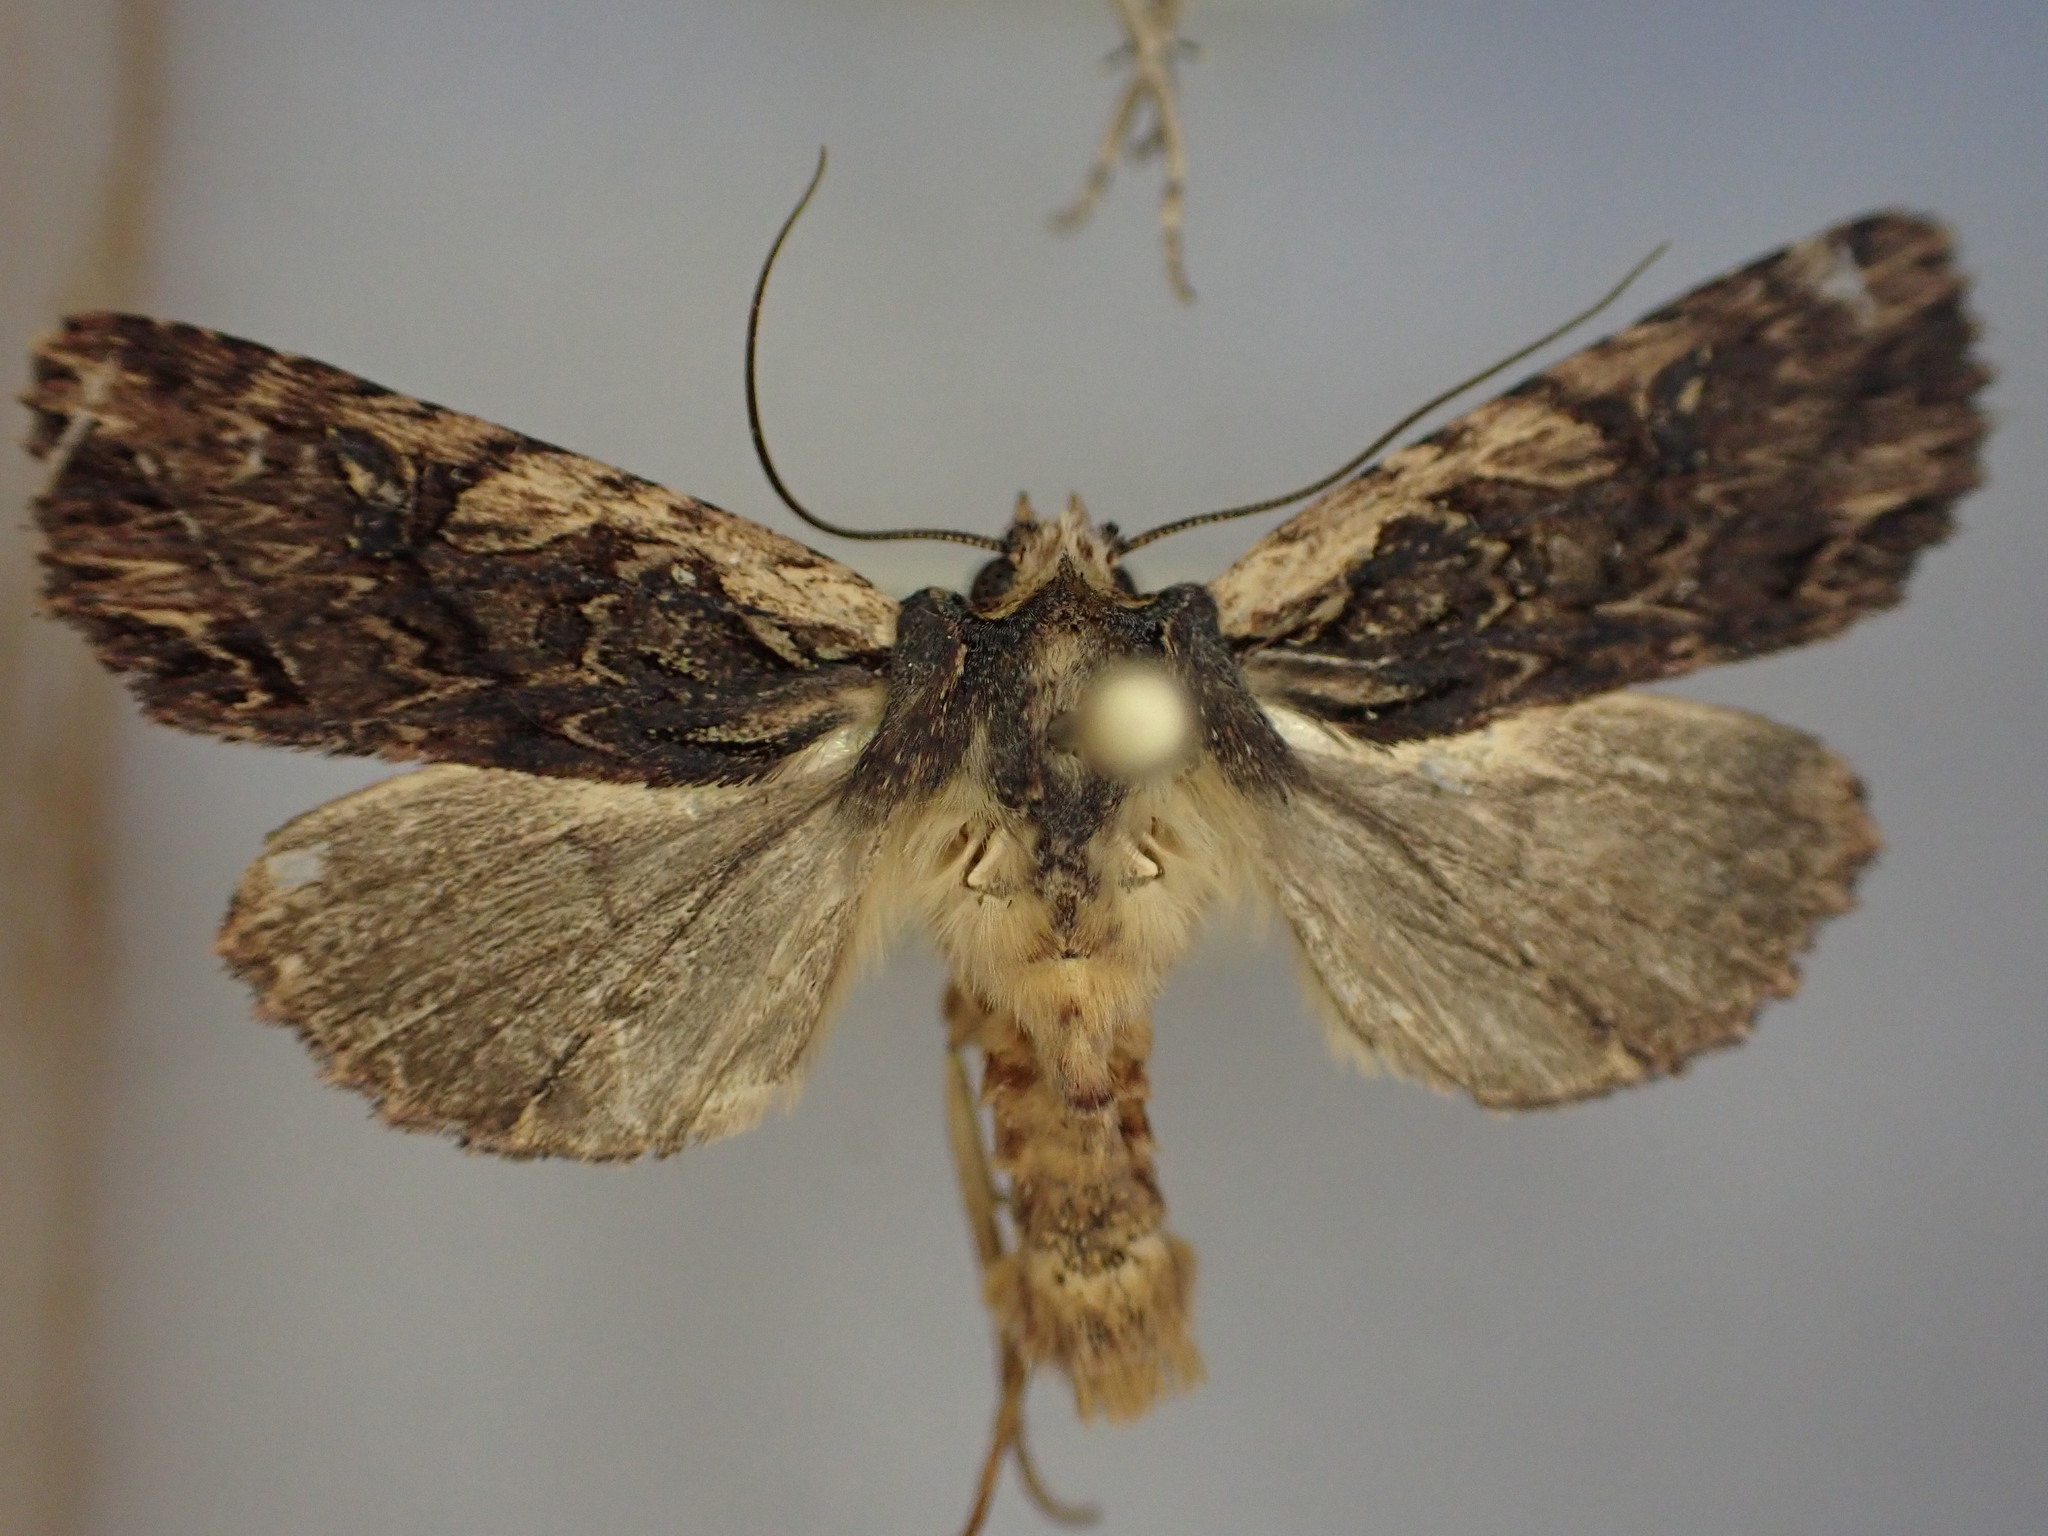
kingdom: Animalia
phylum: Arthropoda
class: Insecta
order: Lepidoptera
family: Noctuidae
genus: Meterana
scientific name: Meterana alcyone
